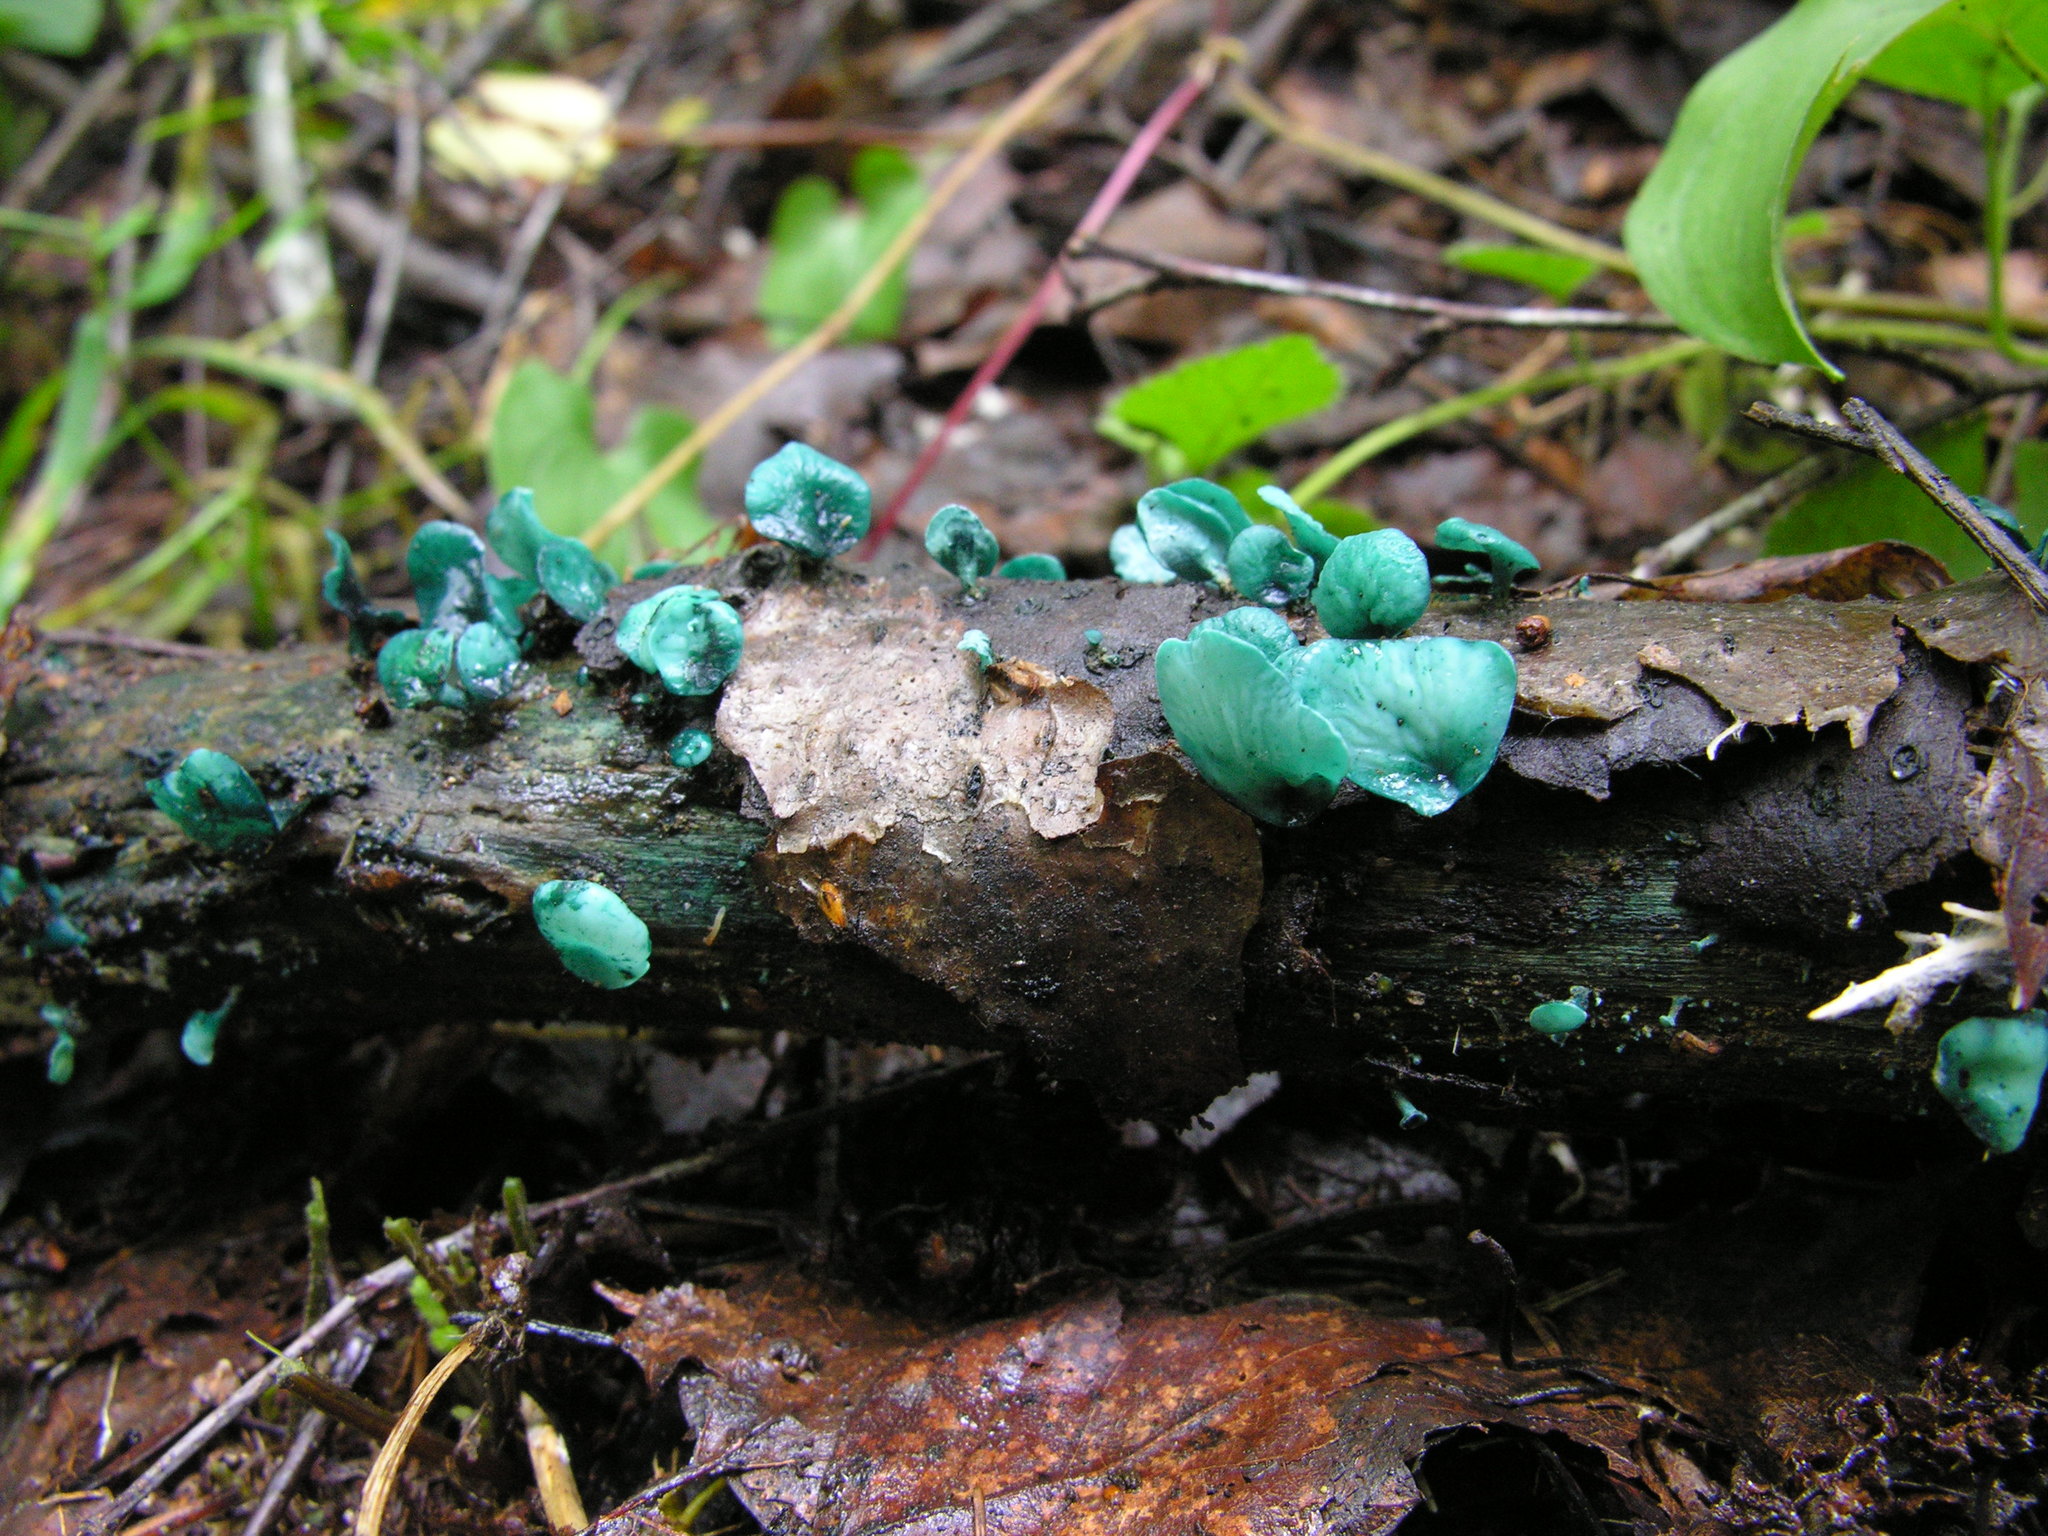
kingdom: Fungi
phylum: Ascomycota
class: Leotiomycetes
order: Helotiales
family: Chlorociboriaceae
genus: Chlorociboria
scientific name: Chlorociboria aeruginascens
